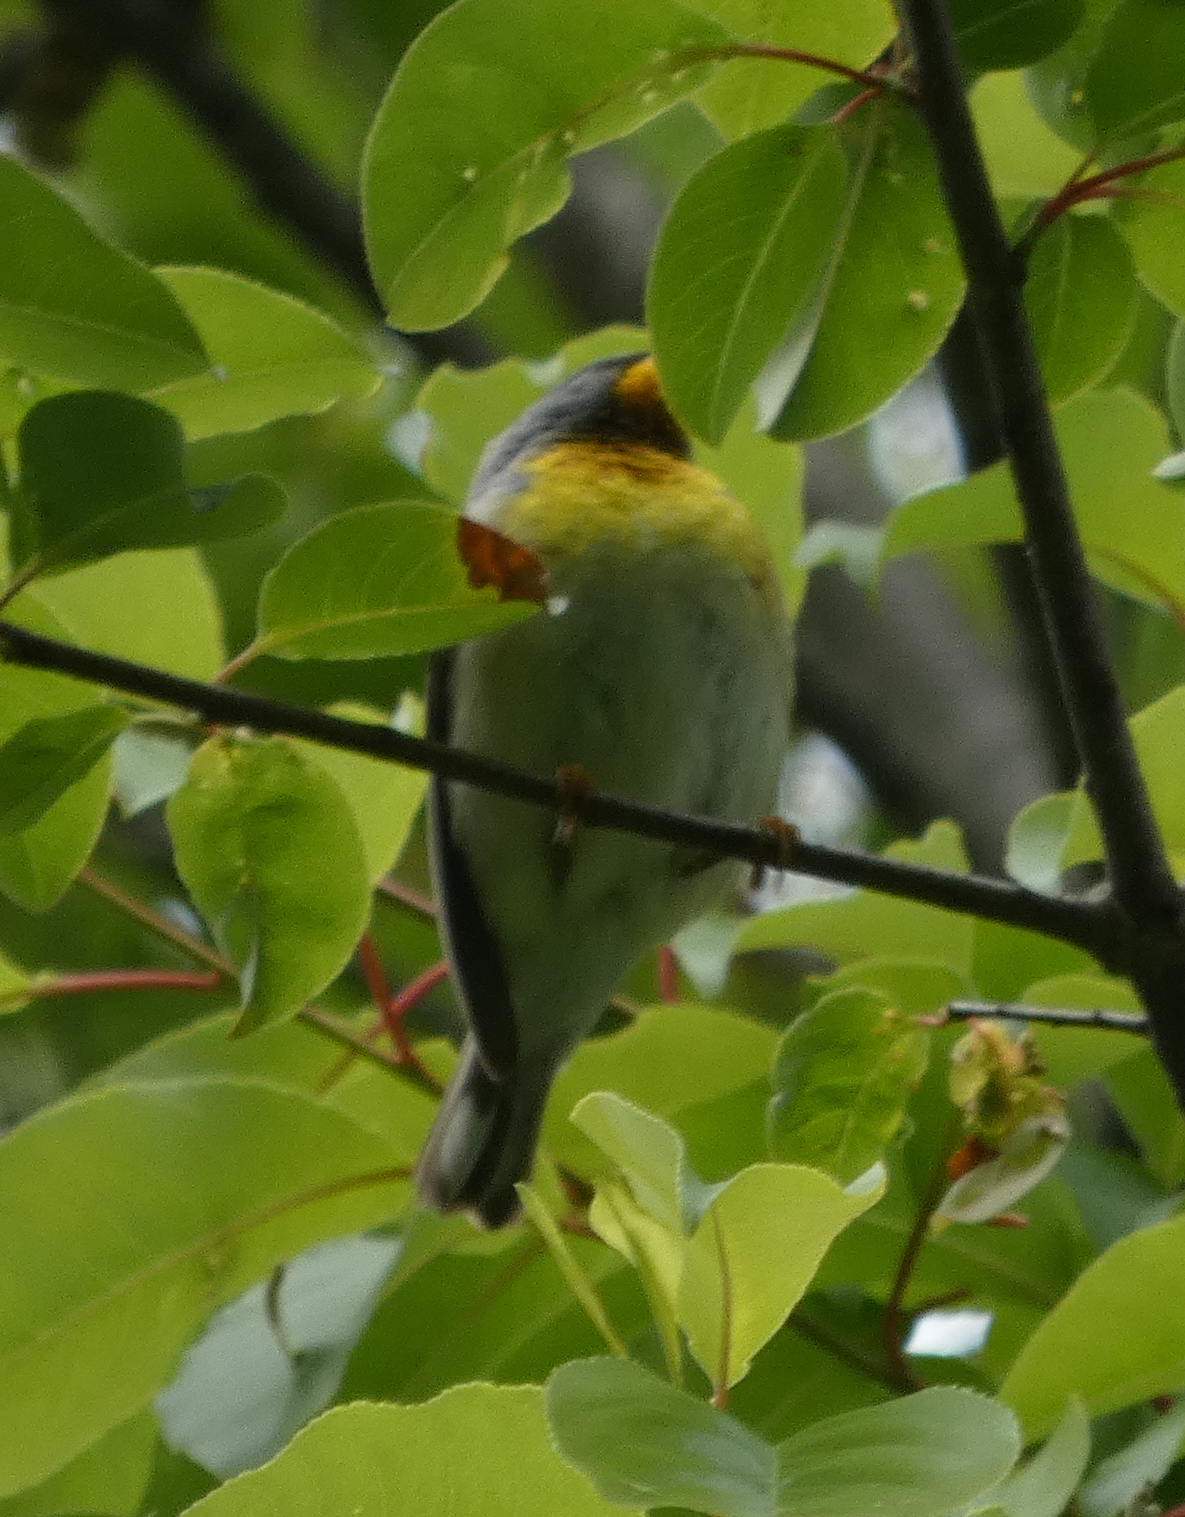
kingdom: Animalia
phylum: Chordata
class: Aves
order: Passeriformes
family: Parulidae
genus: Setophaga
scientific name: Setophaga americana
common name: Northern parula
